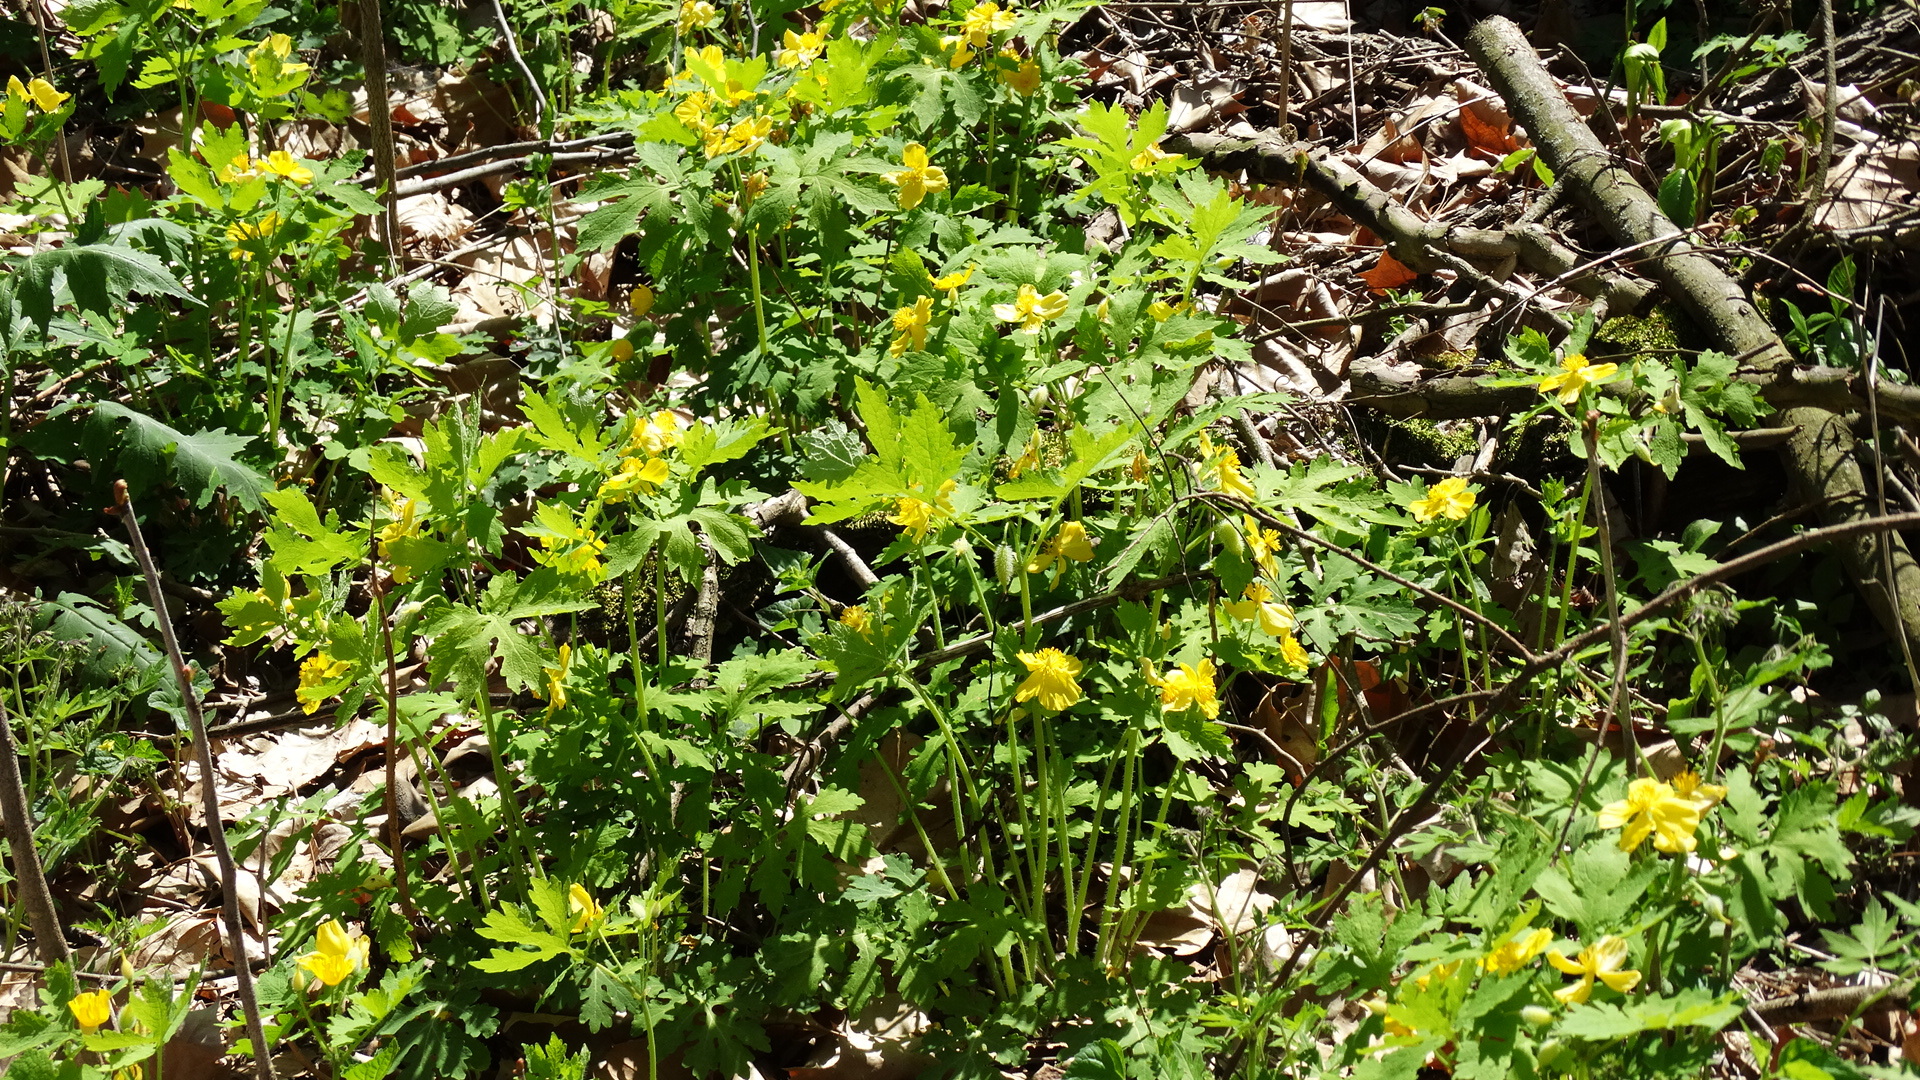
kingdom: Plantae
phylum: Tracheophyta
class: Magnoliopsida
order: Ranunculales
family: Papaveraceae
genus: Stylophorum
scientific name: Stylophorum diphyllum
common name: Celandine poppy
